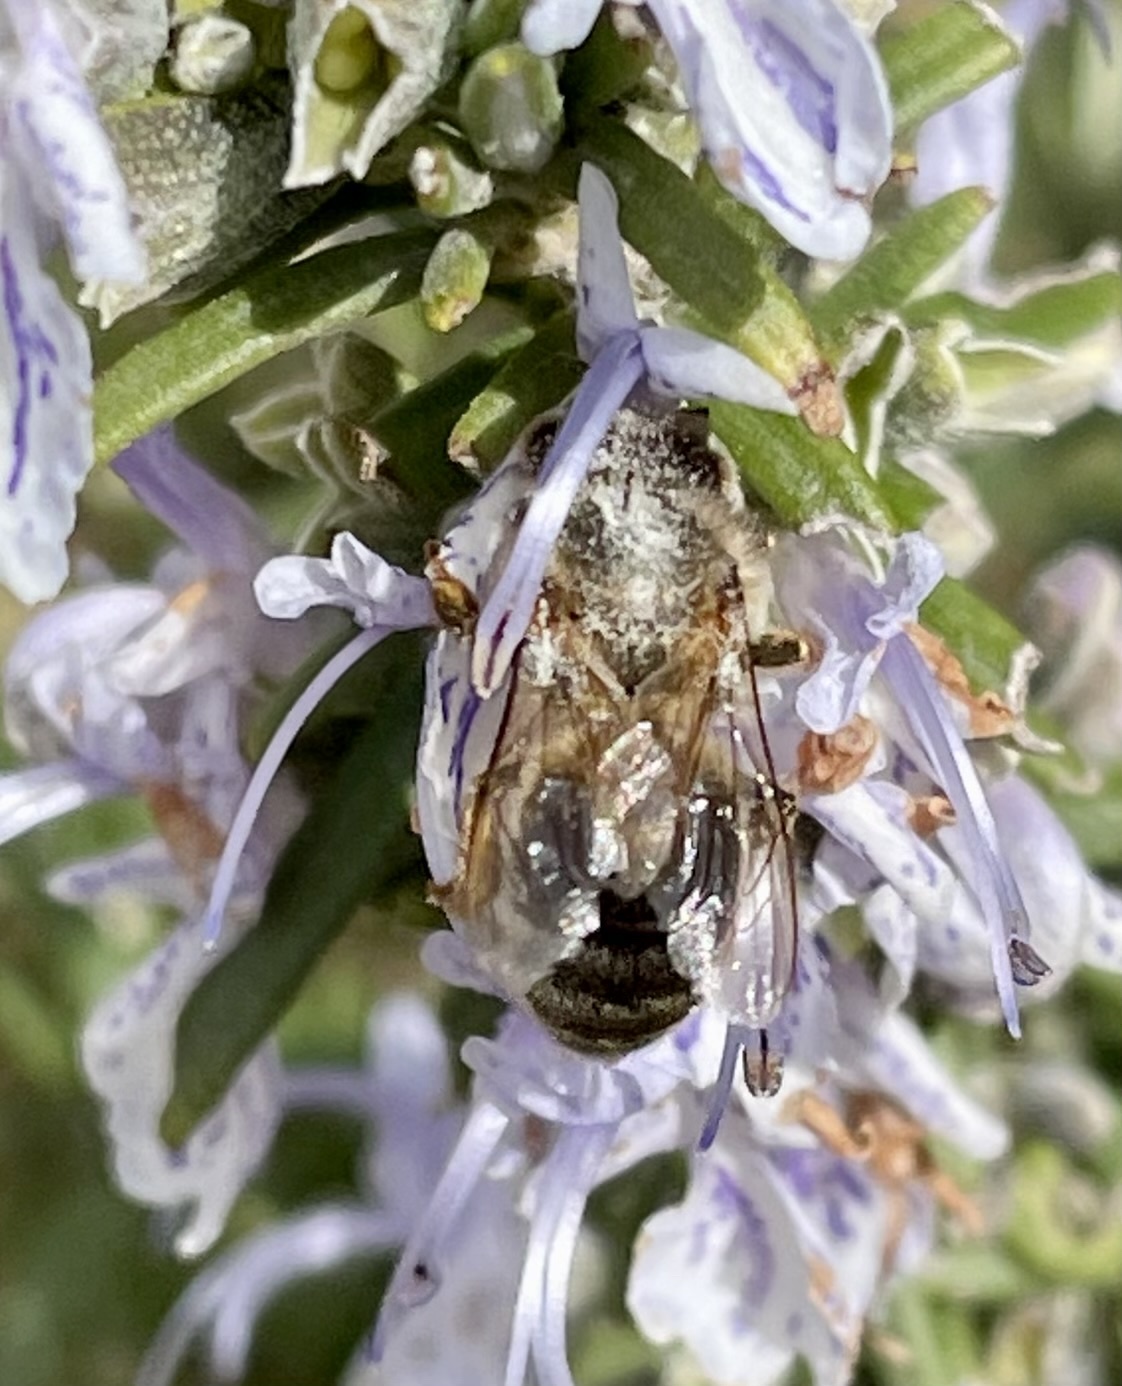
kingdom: Animalia
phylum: Arthropoda
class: Insecta
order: Hymenoptera
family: Apidae
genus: Apis
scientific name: Apis mellifera
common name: Honey bee
